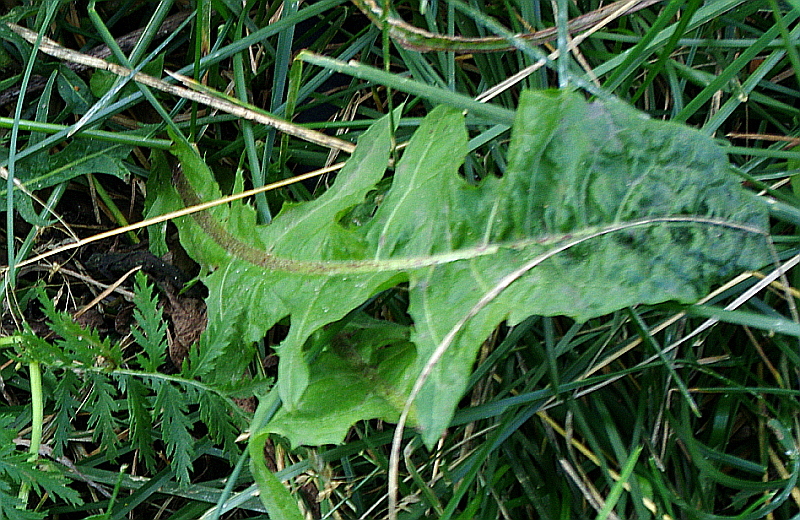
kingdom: Plantae
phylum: Tracheophyta
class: Magnoliopsida
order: Asterales
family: Asteraceae
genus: Taraxacum
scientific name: Taraxacum officinale
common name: Common dandelion
